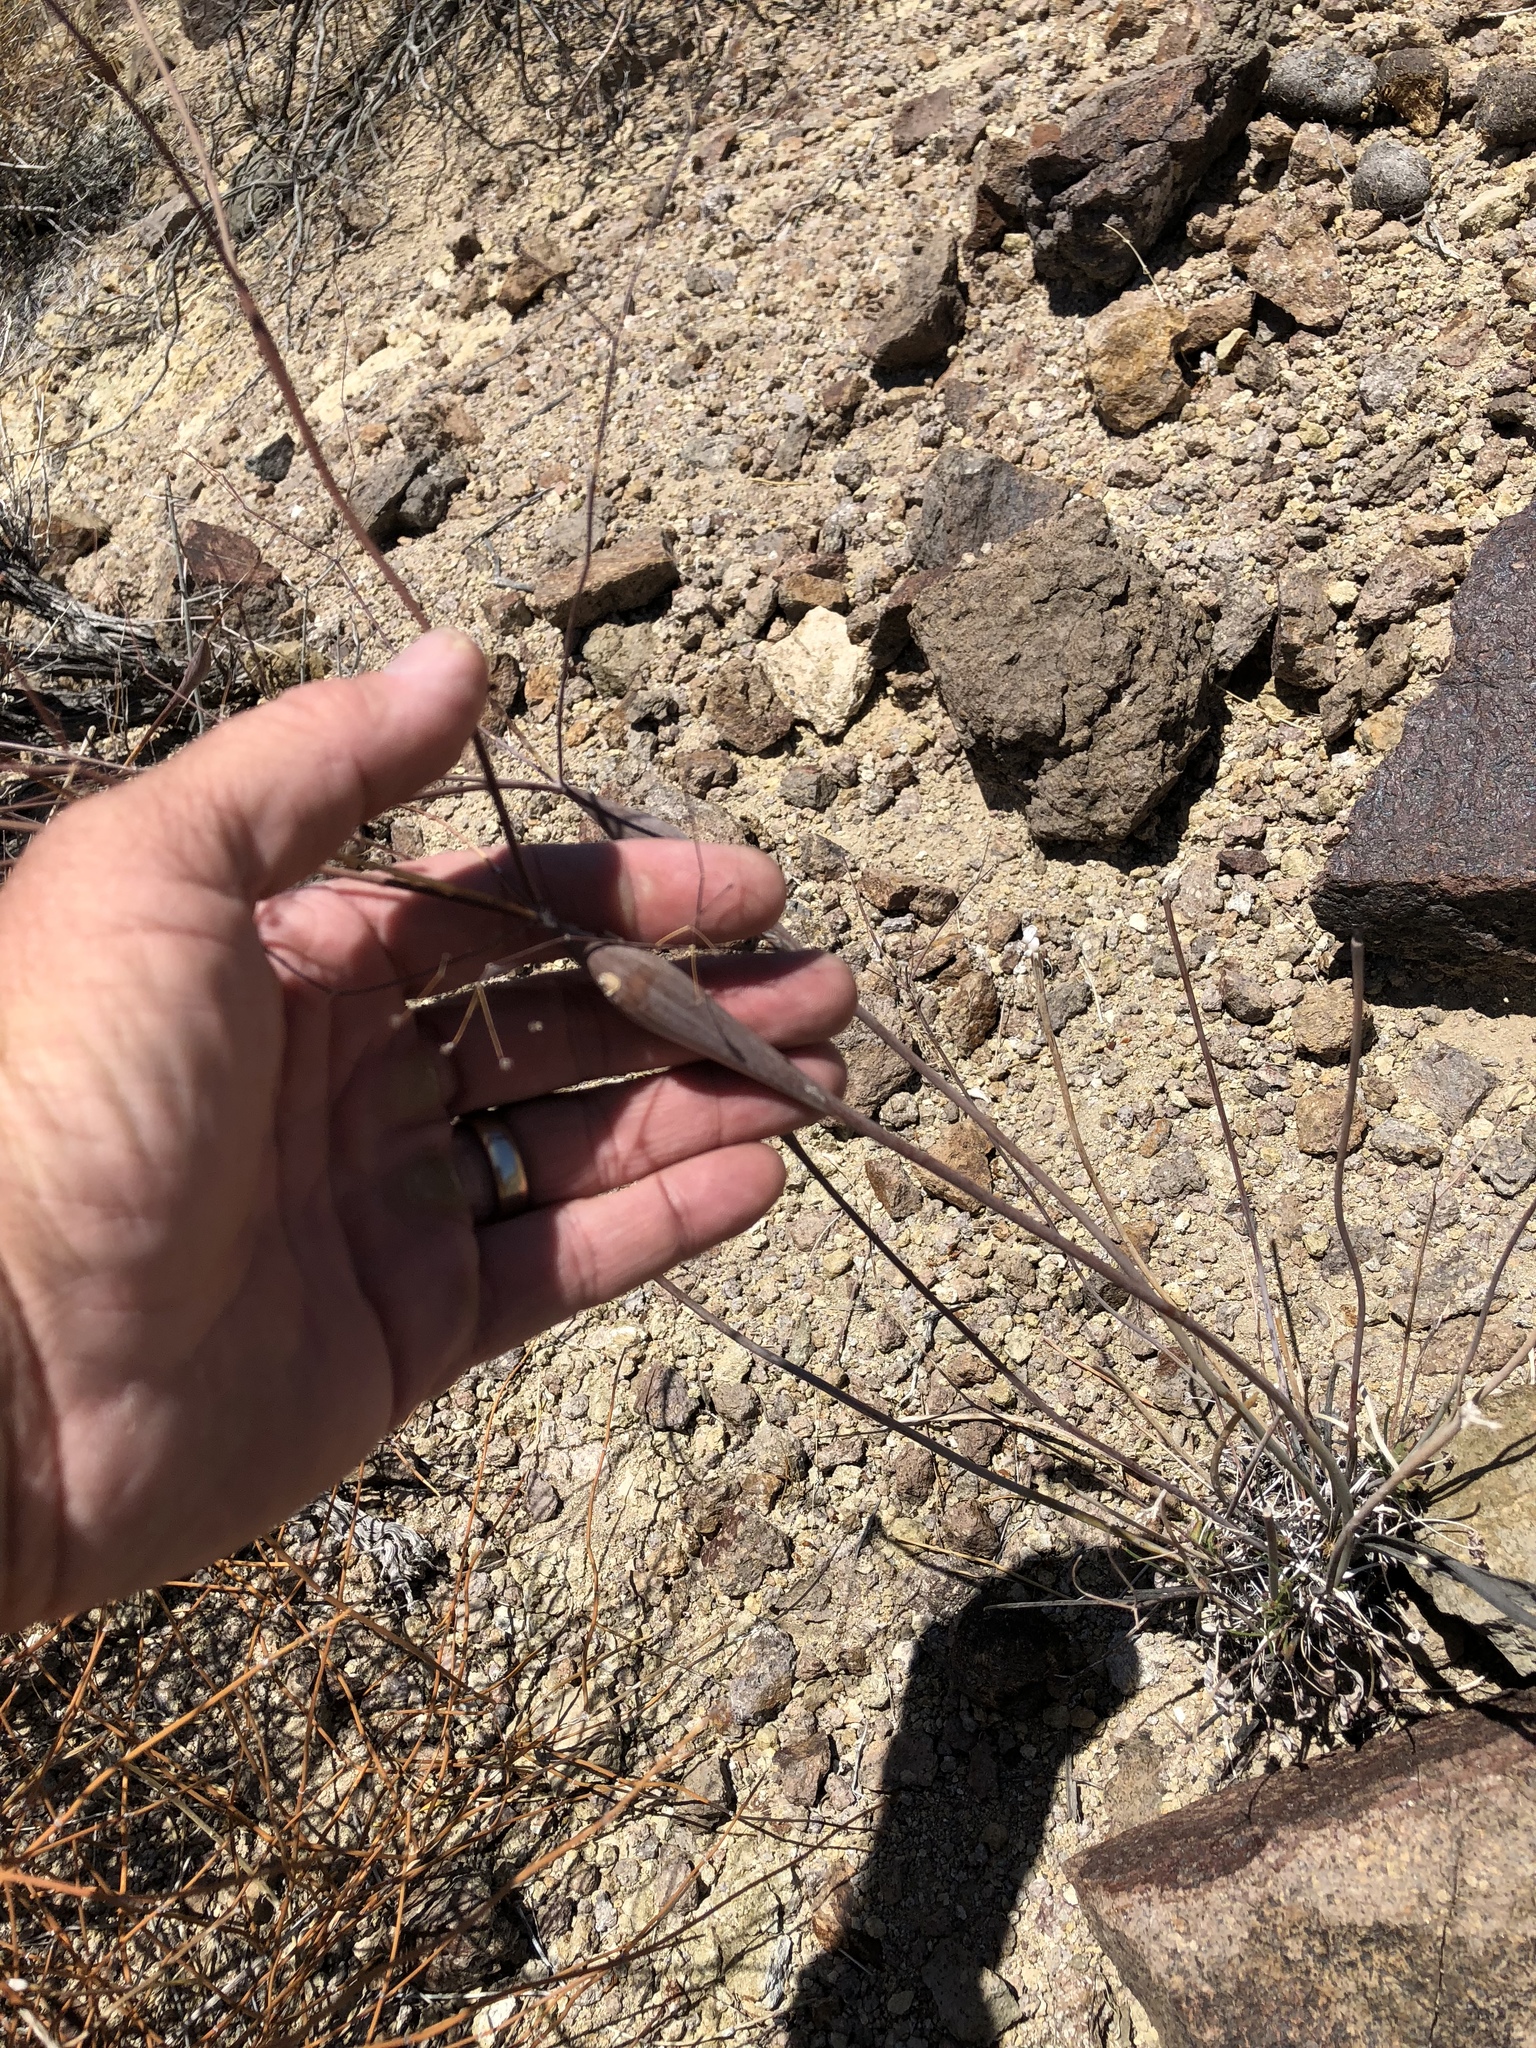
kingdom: Plantae
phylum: Tracheophyta
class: Magnoliopsida
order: Caryophyllales
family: Polygonaceae
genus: Eriogonum
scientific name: Eriogonum inflatum
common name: Desert trumpet
